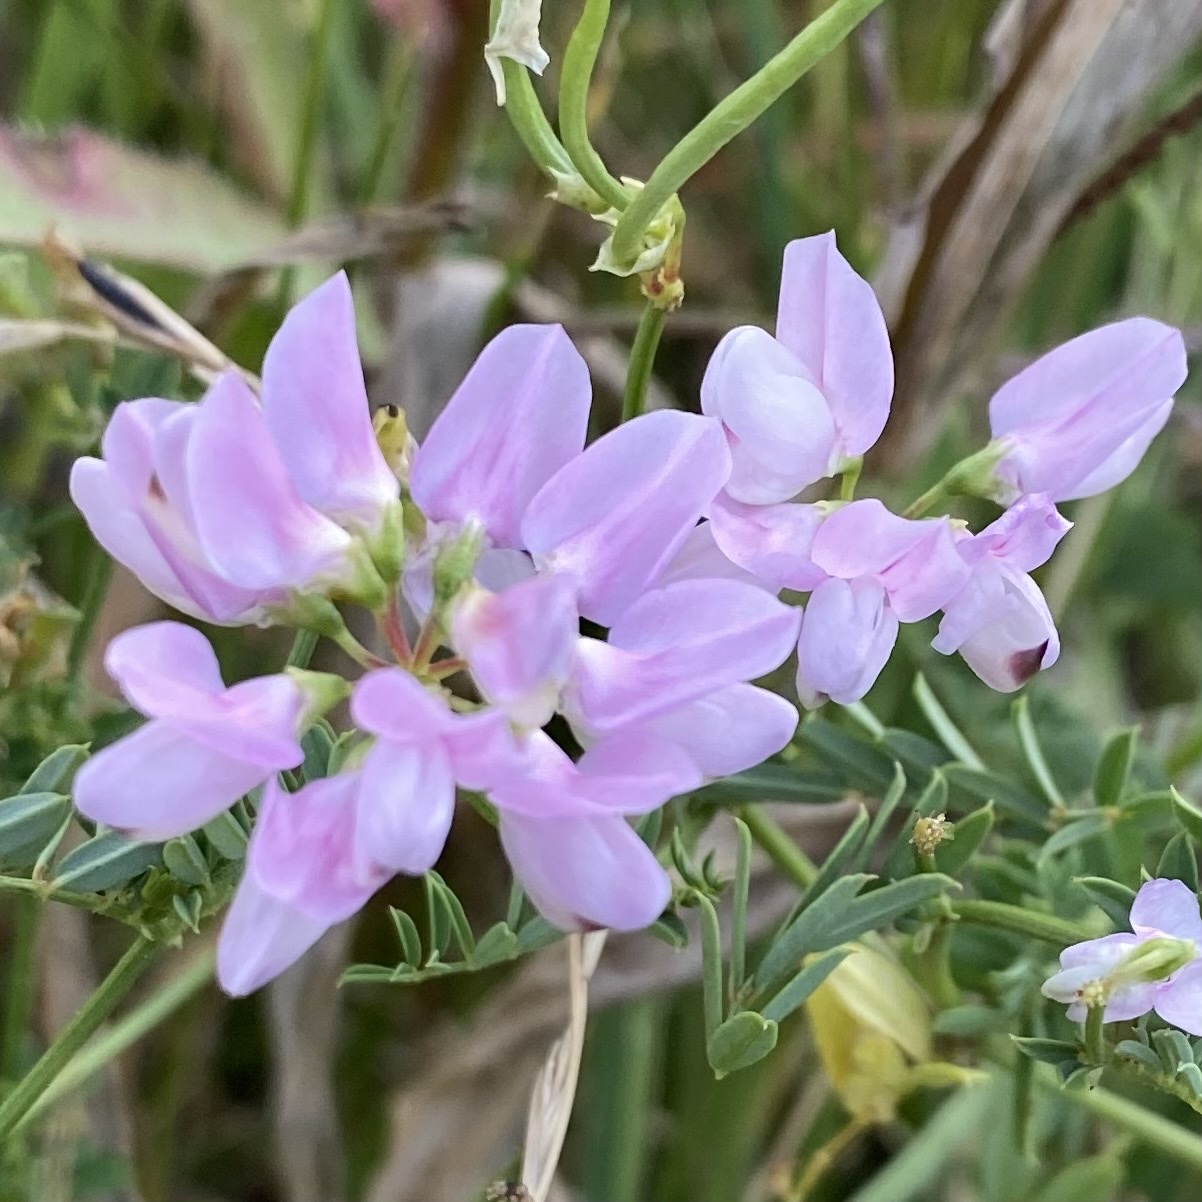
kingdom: Plantae
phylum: Tracheophyta
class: Magnoliopsida
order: Fabales
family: Fabaceae
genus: Coronilla
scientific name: Coronilla varia
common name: Crownvetch
